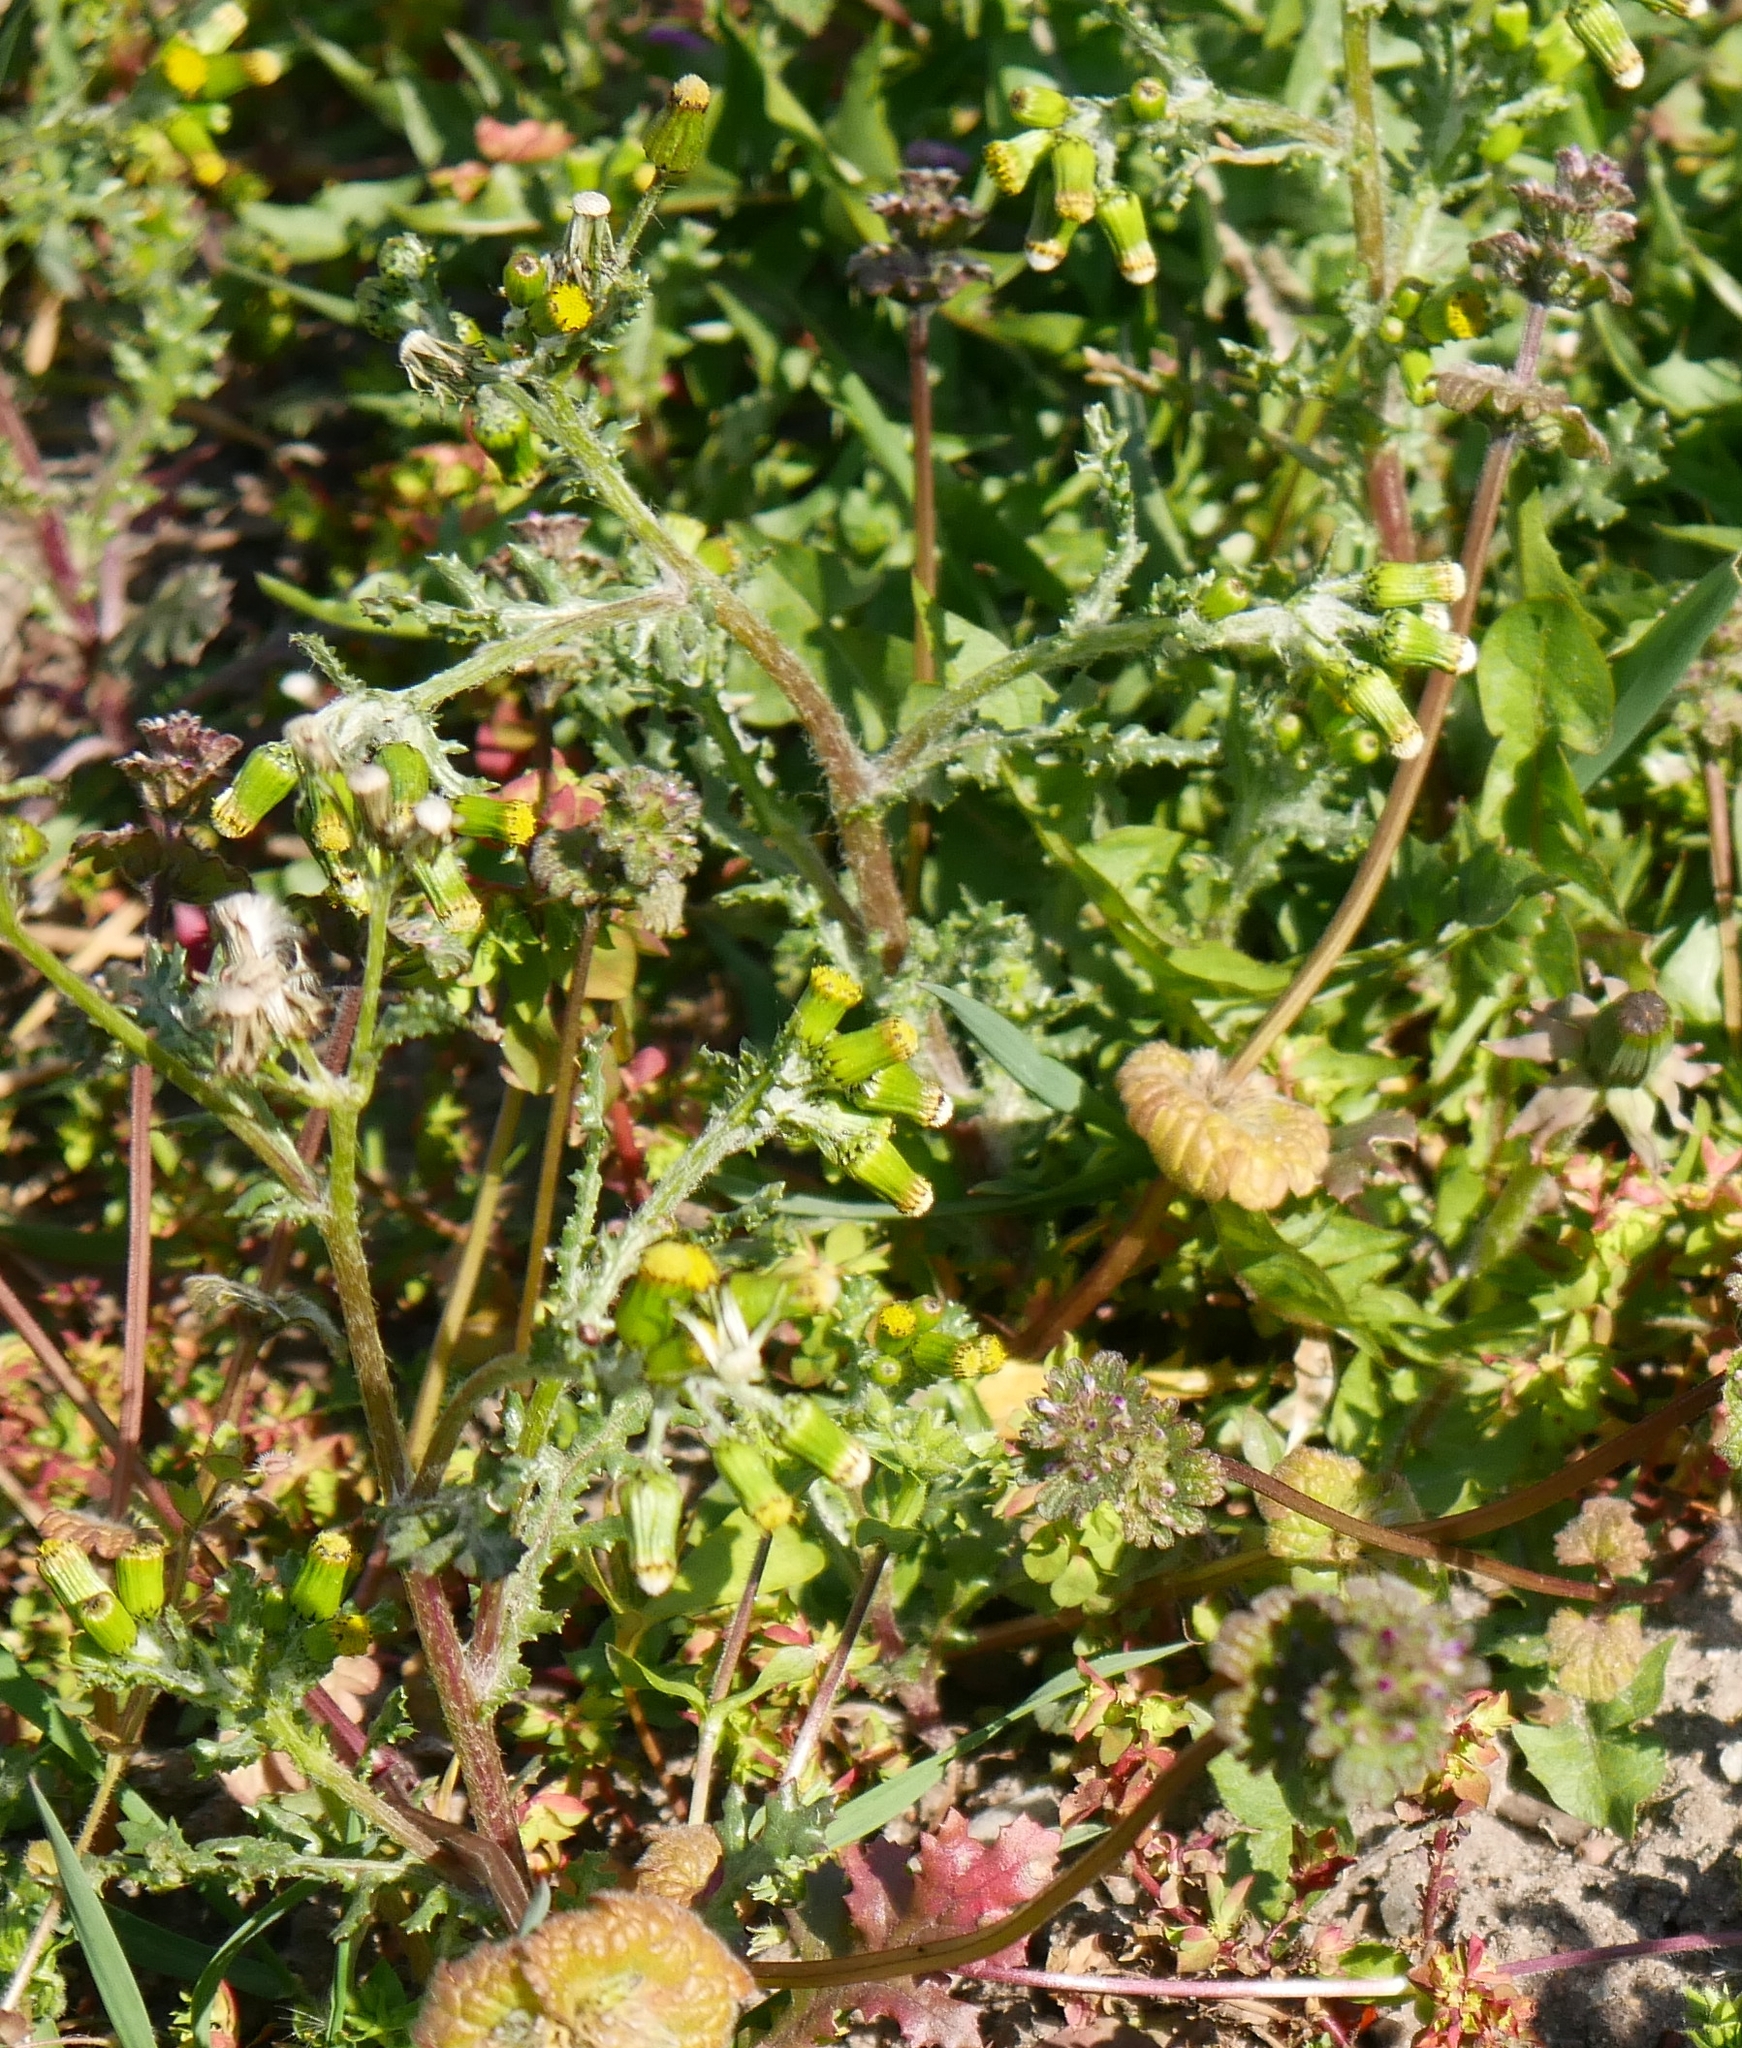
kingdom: Plantae
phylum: Tracheophyta
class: Magnoliopsida
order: Asterales
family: Asteraceae
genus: Senecio
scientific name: Senecio vulgaris
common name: Old-man-in-the-spring
